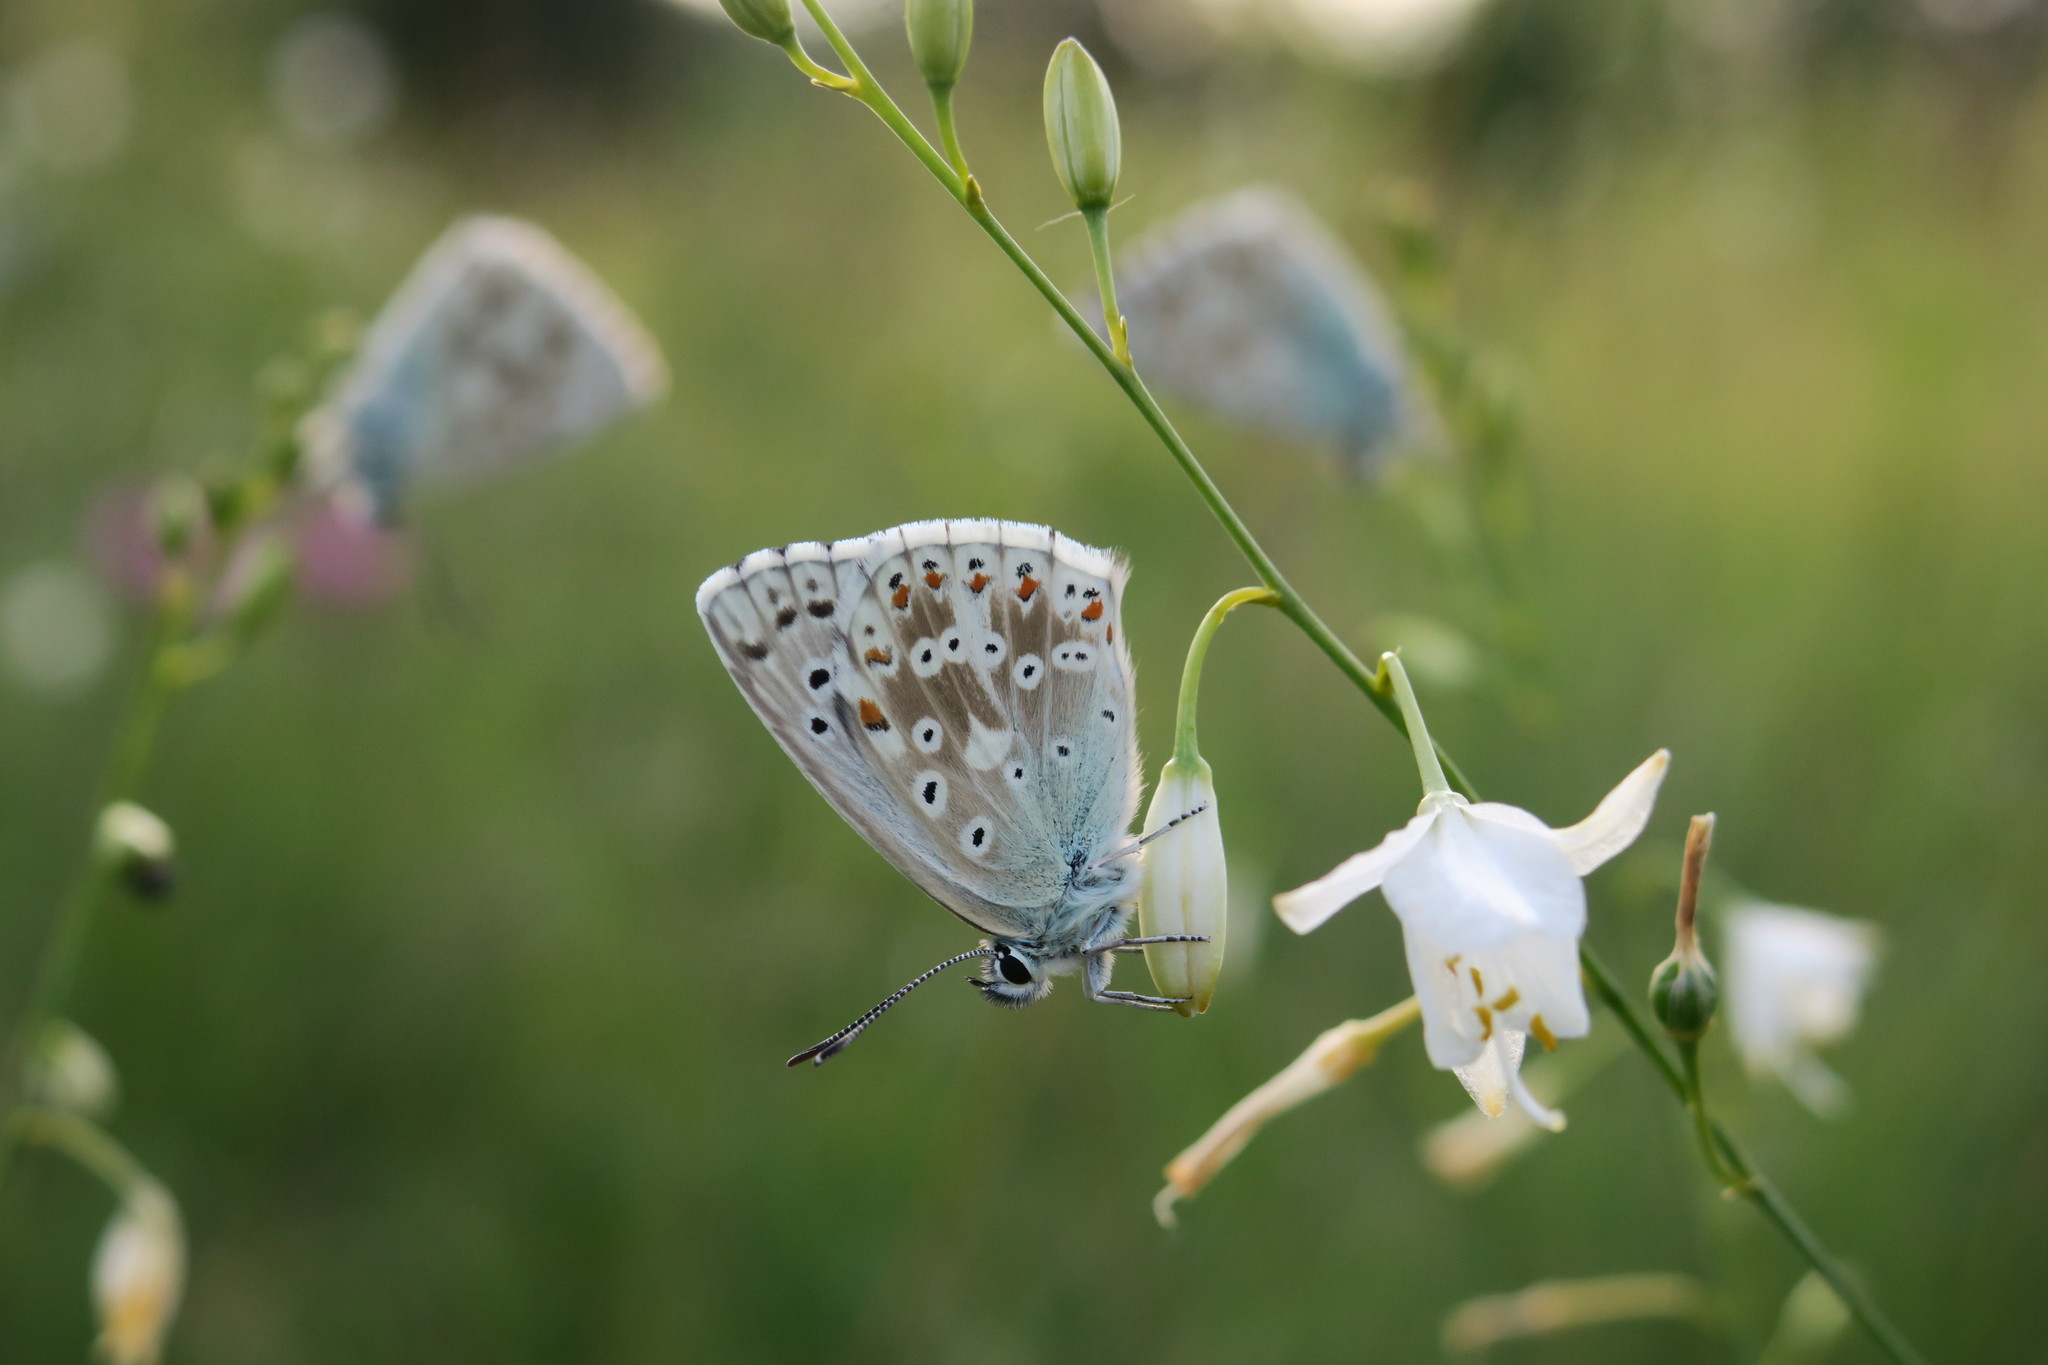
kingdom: Animalia
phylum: Arthropoda
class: Insecta
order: Lepidoptera
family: Lycaenidae
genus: Lysandra
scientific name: Lysandra coridon
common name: Chalkhill blue
